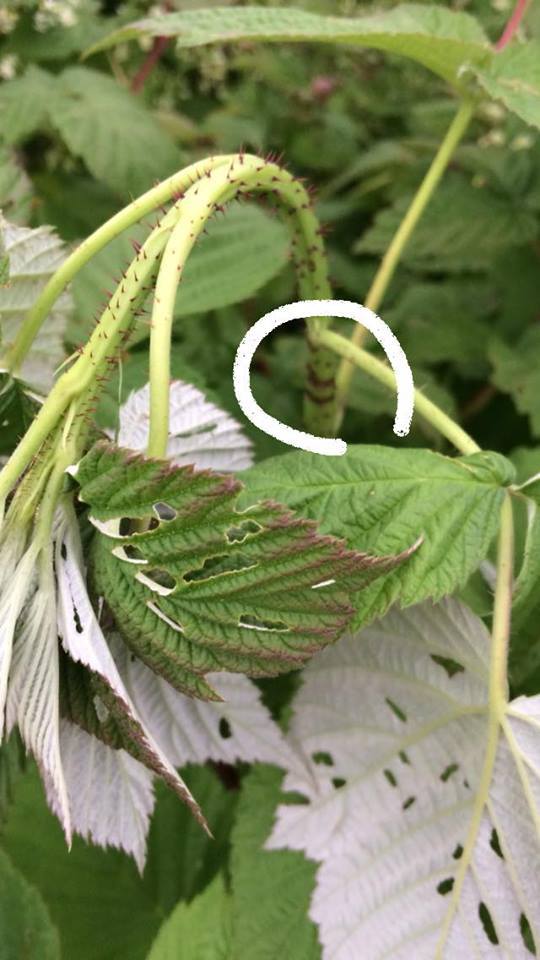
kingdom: Animalia
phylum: Arthropoda
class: Insecta
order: Coleoptera
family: Cerambycidae
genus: Oberea
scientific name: Oberea perspicillata
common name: Raspberry cane borer
